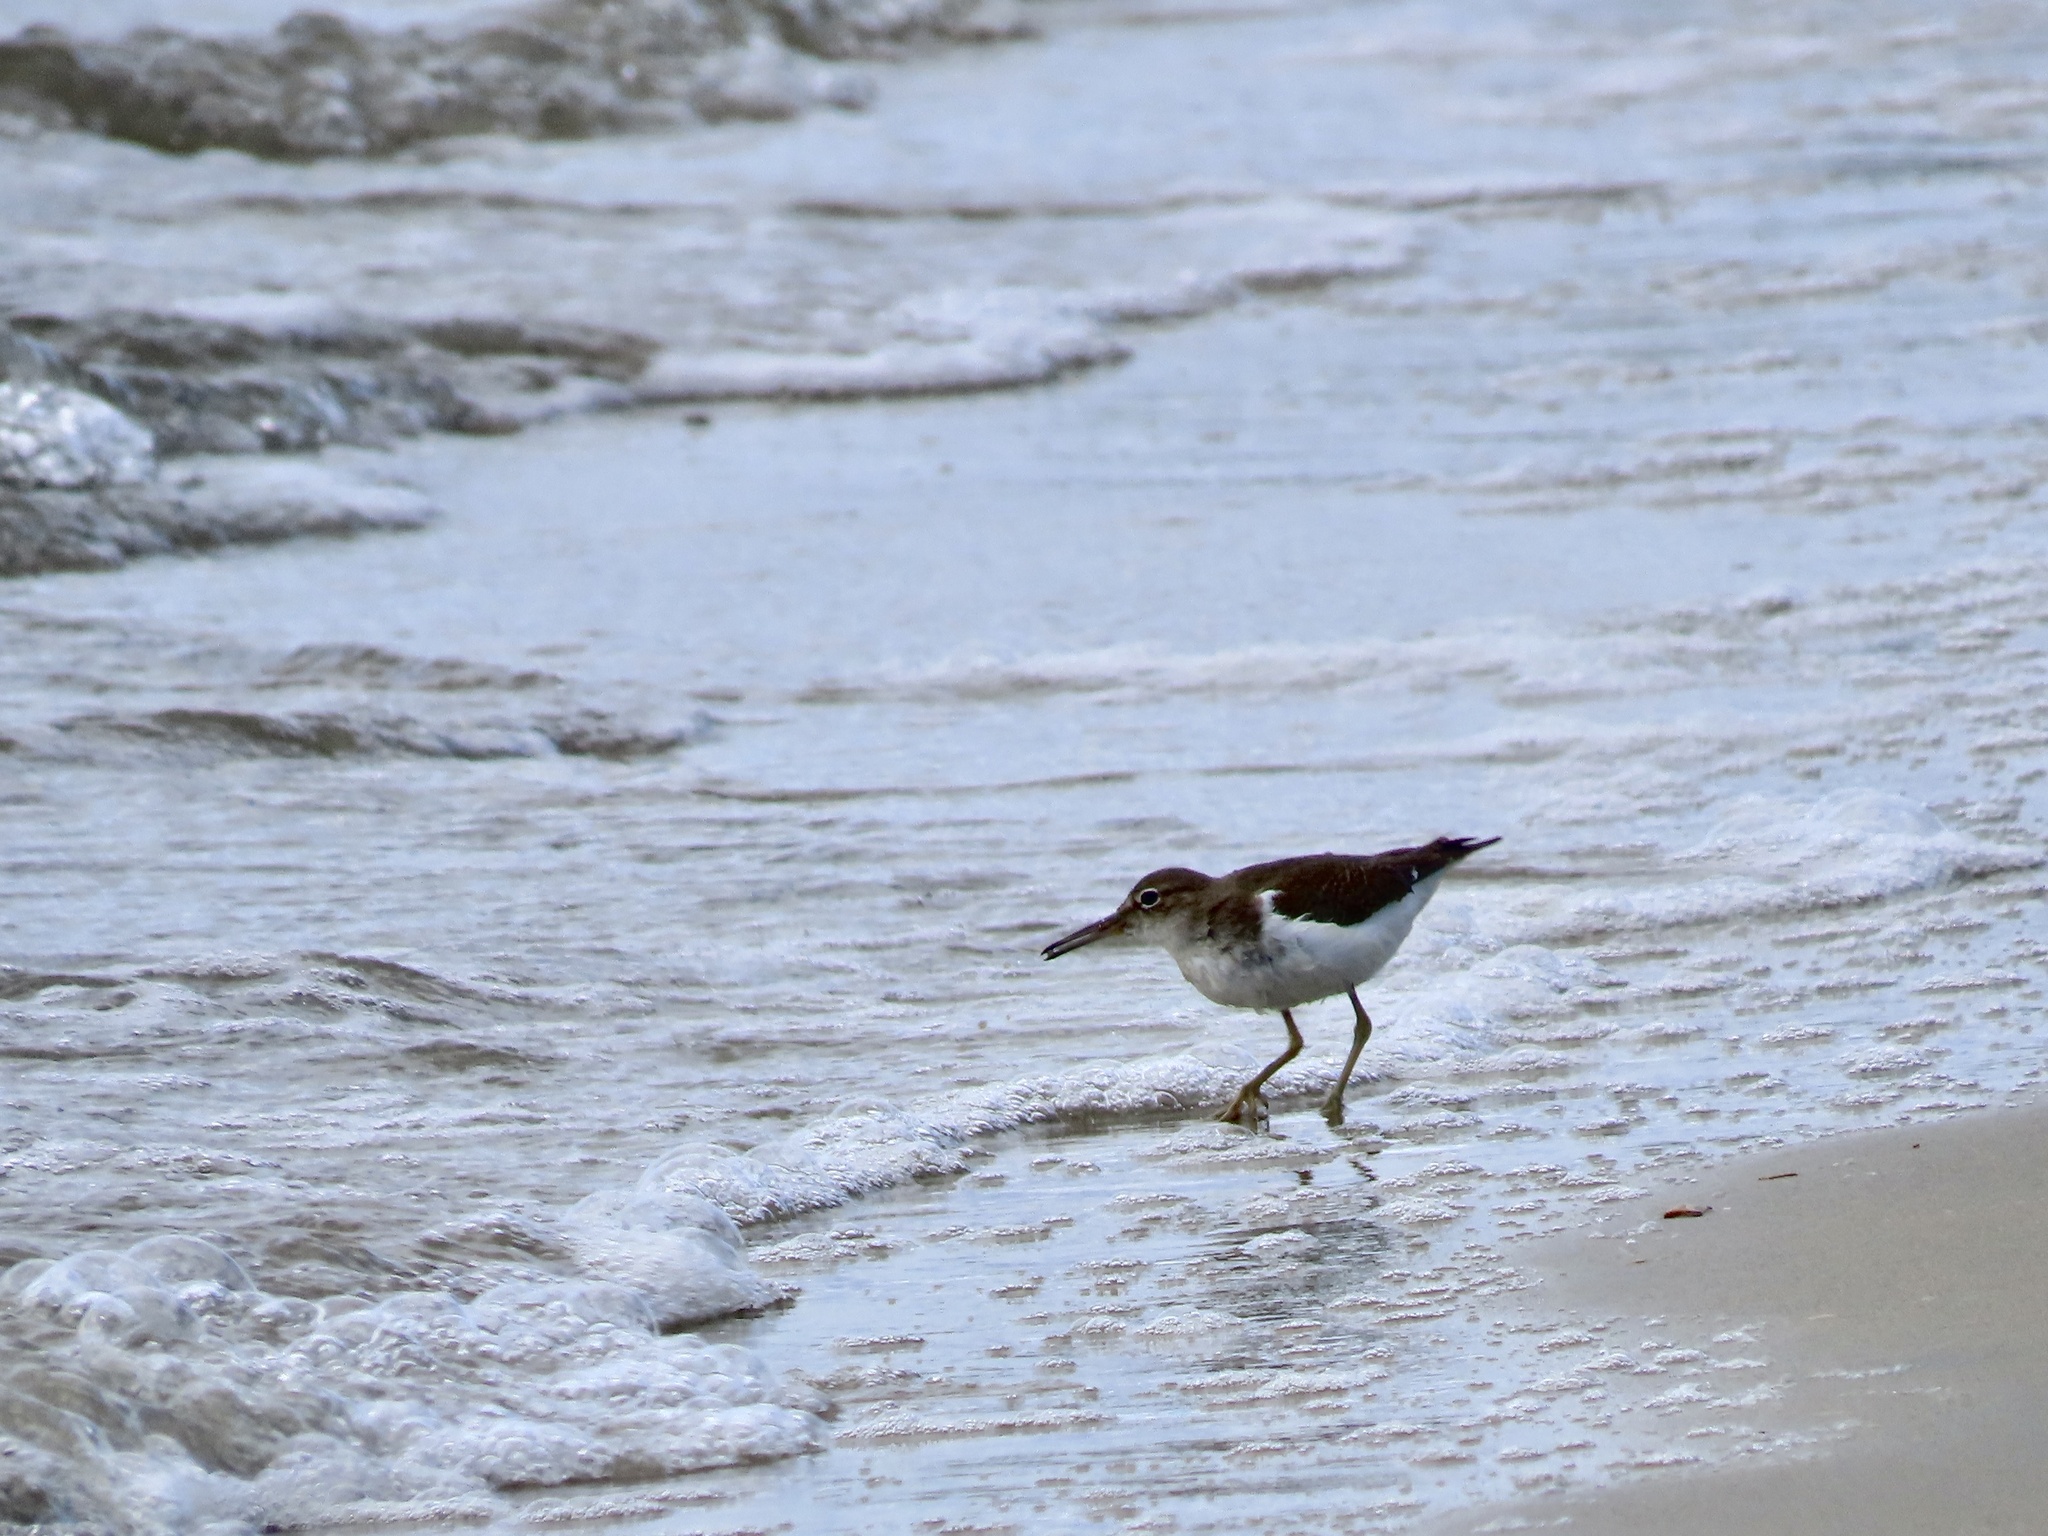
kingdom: Animalia
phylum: Chordata
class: Aves
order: Charadriiformes
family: Scolopacidae
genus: Actitis
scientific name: Actitis macularius
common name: Spotted sandpiper
